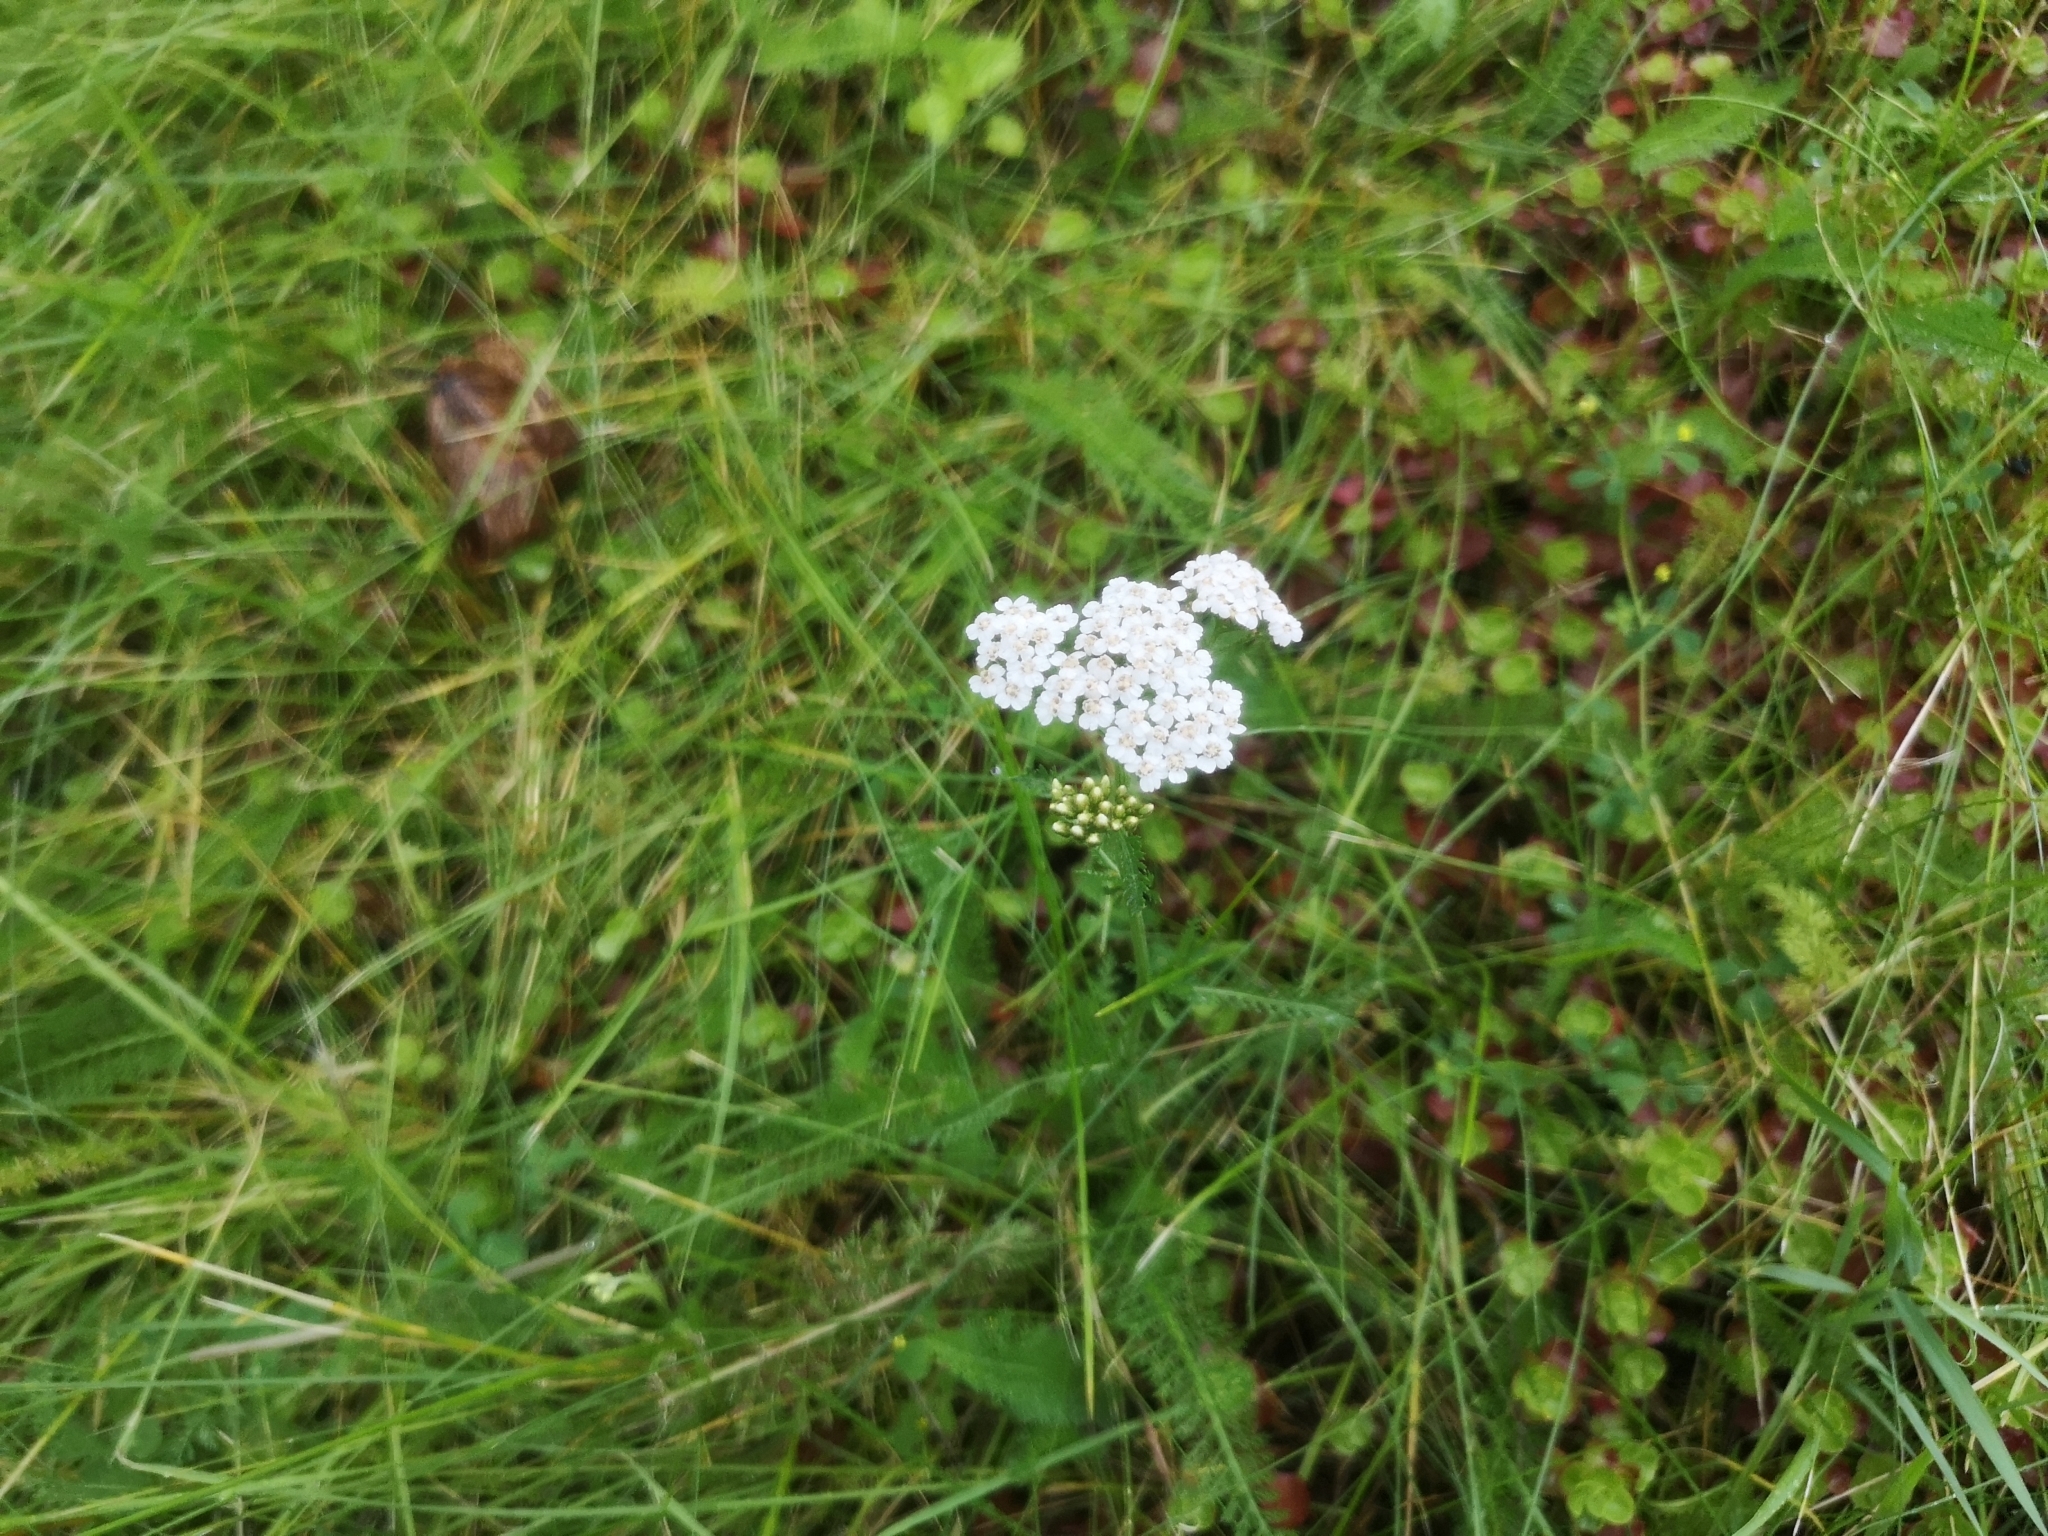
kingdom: Plantae
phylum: Tracheophyta
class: Magnoliopsida
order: Asterales
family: Asteraceae
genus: Achillea
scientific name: Achillea millefolium
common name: Yarrow
